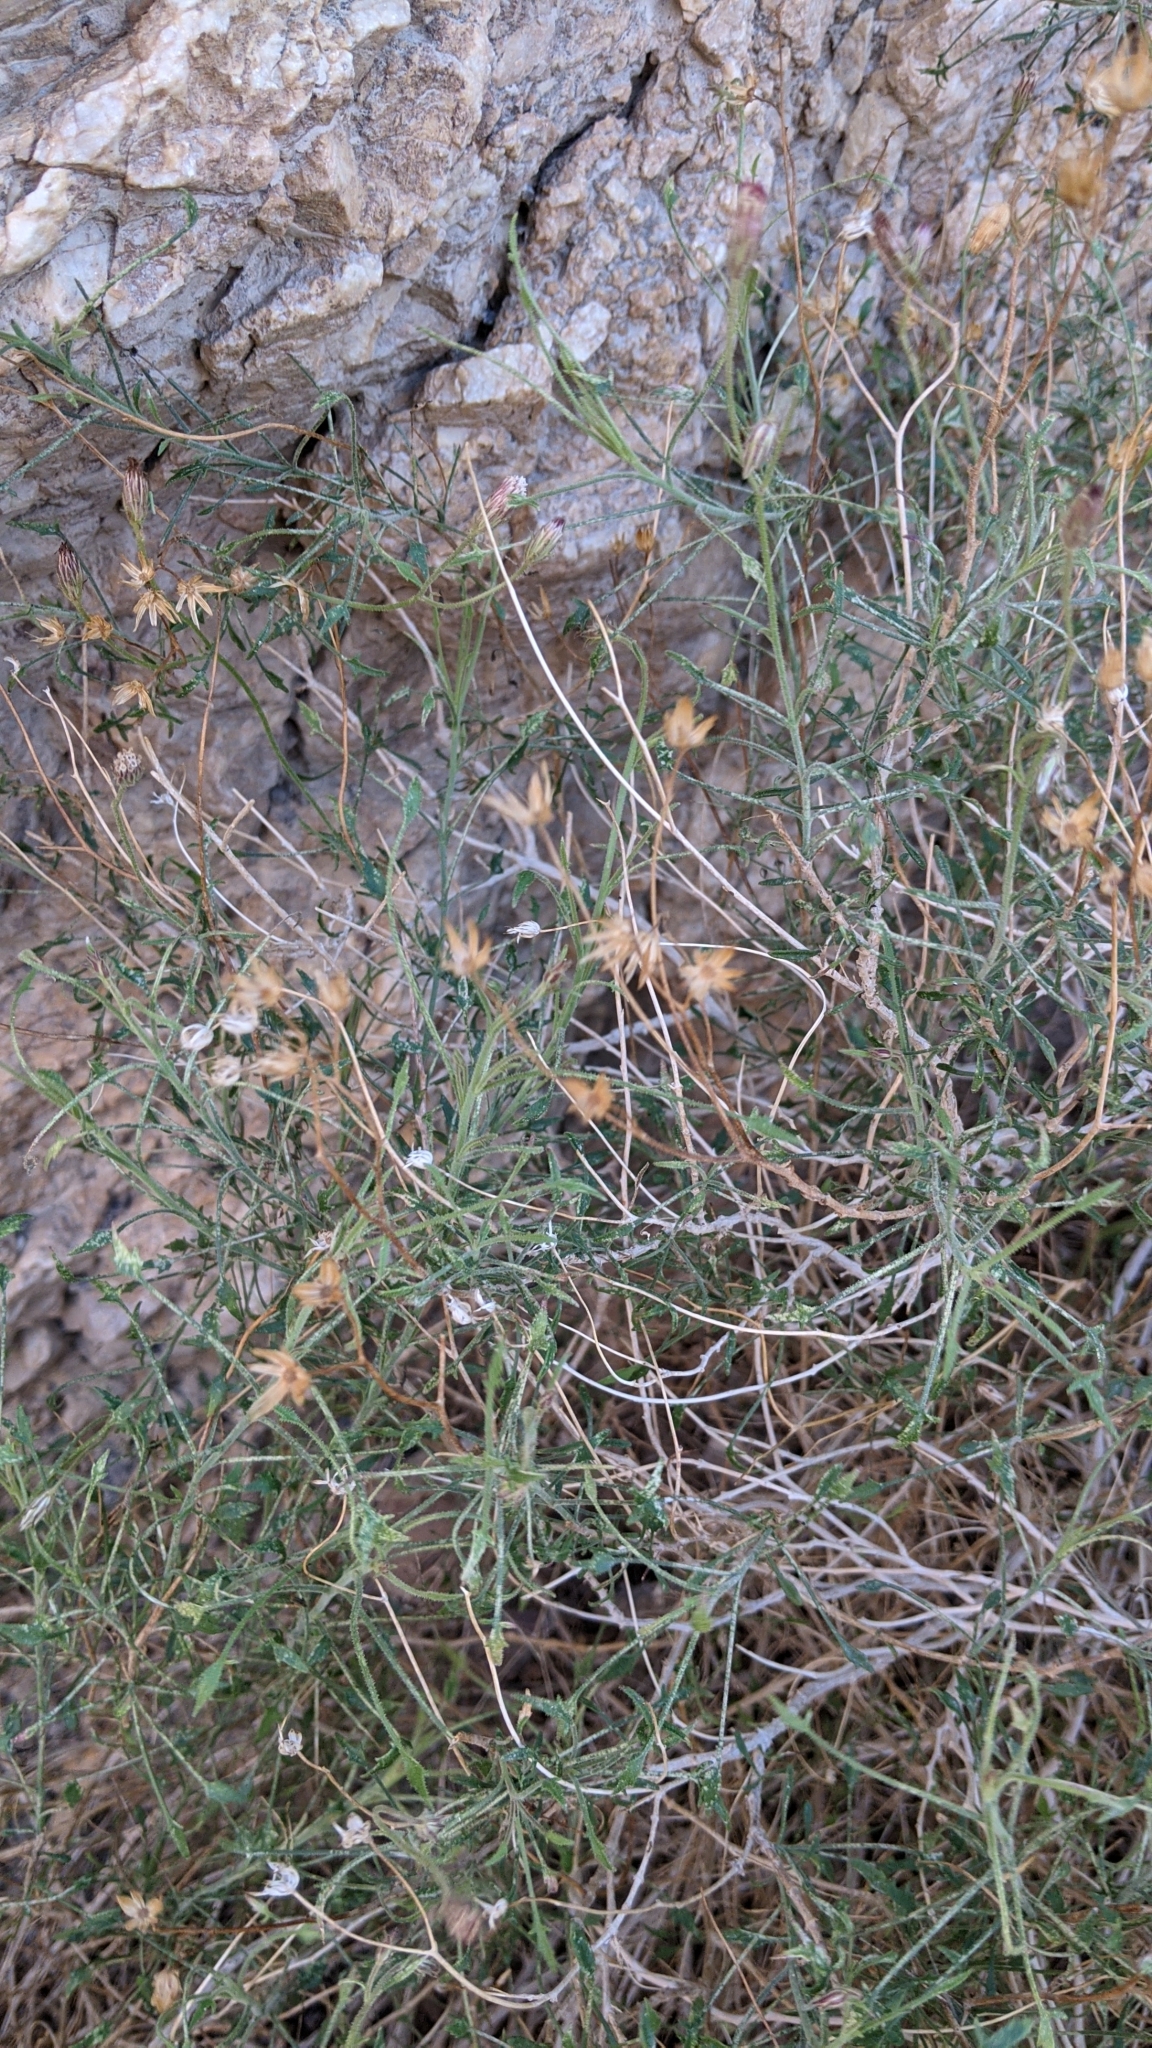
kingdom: Plantae
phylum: Tracheophyta
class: Magnoliopsida
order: Asterales
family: Asteraceae
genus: Pleurocoronis
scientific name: Pleurocoronis pluriseta
